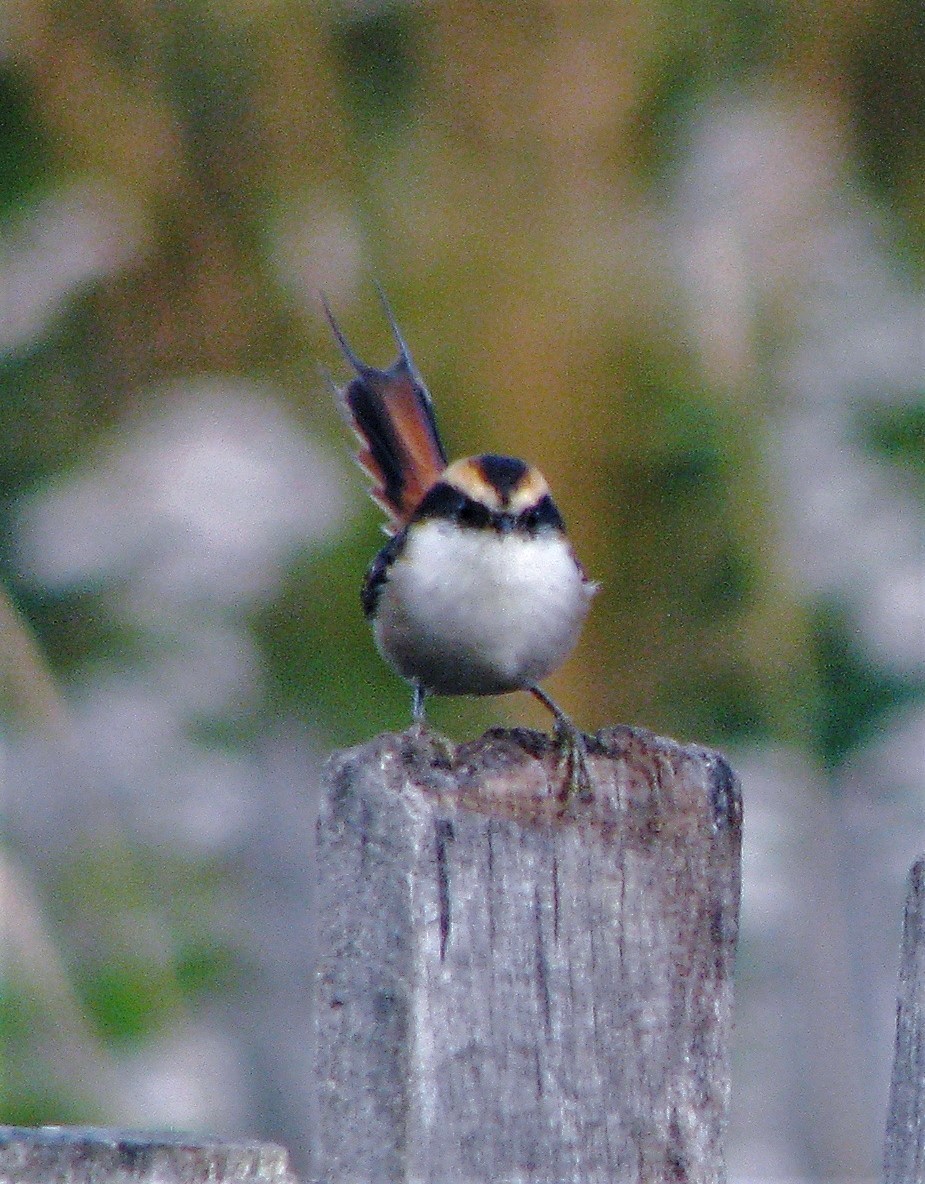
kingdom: Animalia
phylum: Chordata
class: Aves
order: Passeriformes
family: Furnariidae
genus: Aphrastura
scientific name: Aphrastura spinicauda
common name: Thorn-tailed rayadito
